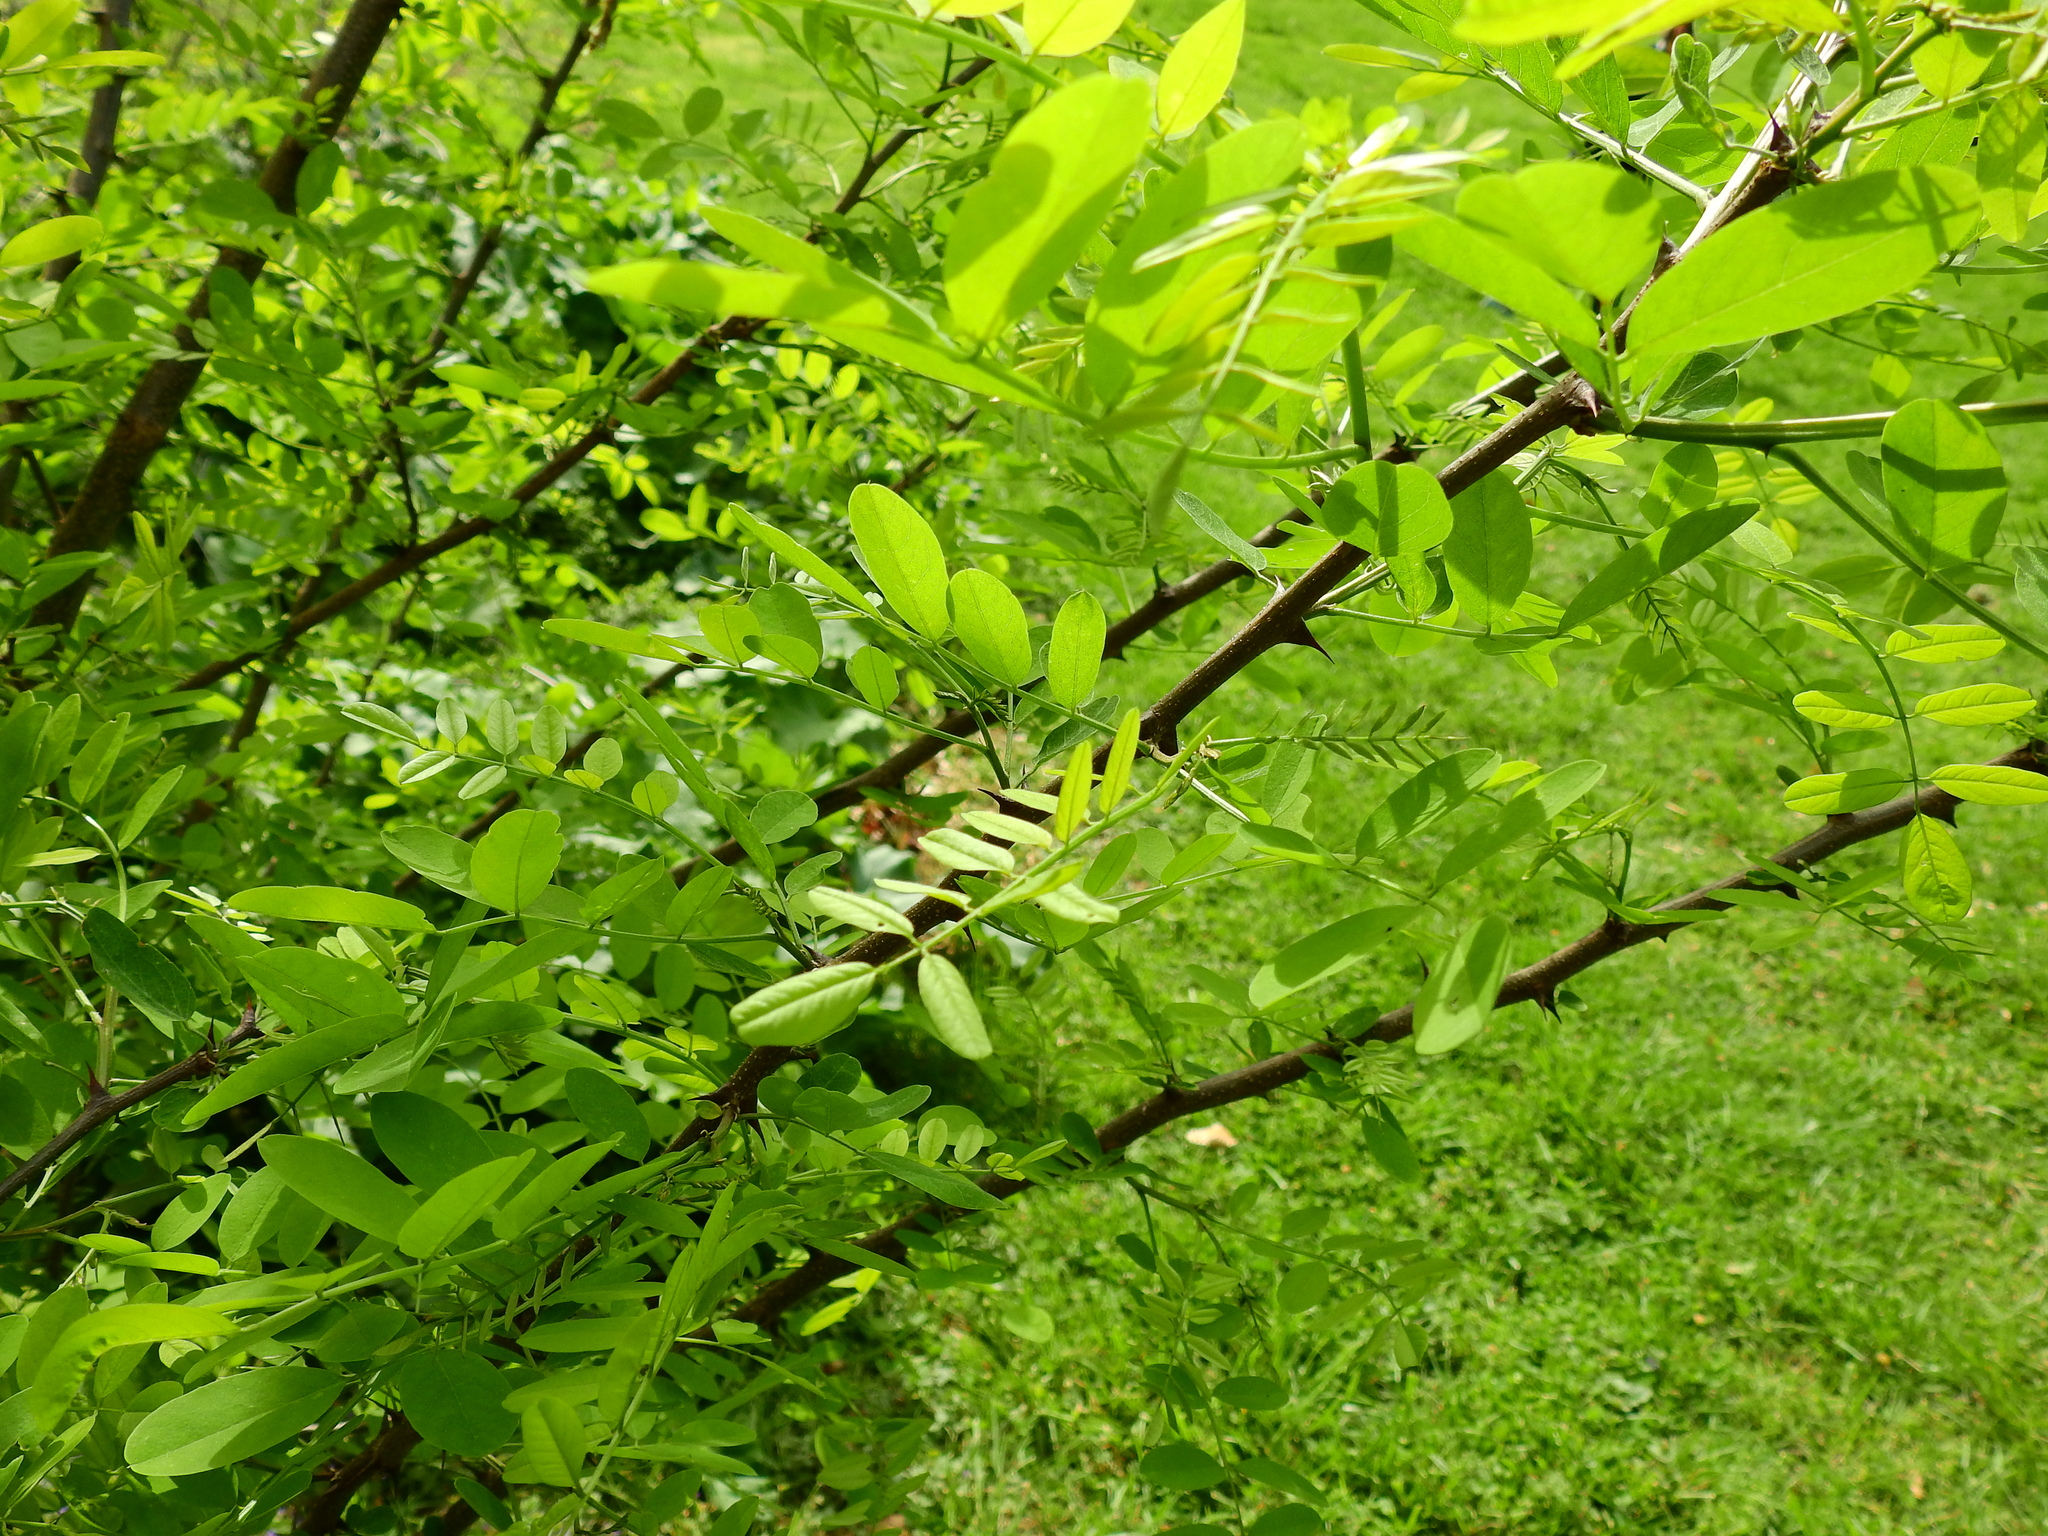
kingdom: Plantae
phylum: Tracheophyta
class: Magnoliopsida
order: Fabales
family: Fabaceae
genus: Robinia
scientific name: Robinia pseudoacacia
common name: Black locust
